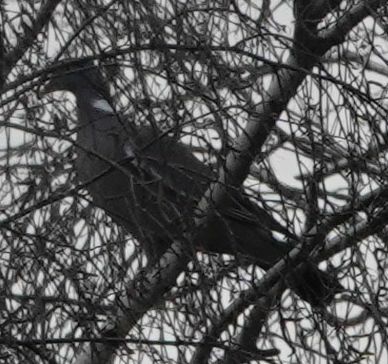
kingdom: Animalia
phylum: Chordata
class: Aves
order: Columbiformes
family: Columbidae
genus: Columba
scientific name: Columba palumbus
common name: Common wood pigeon
